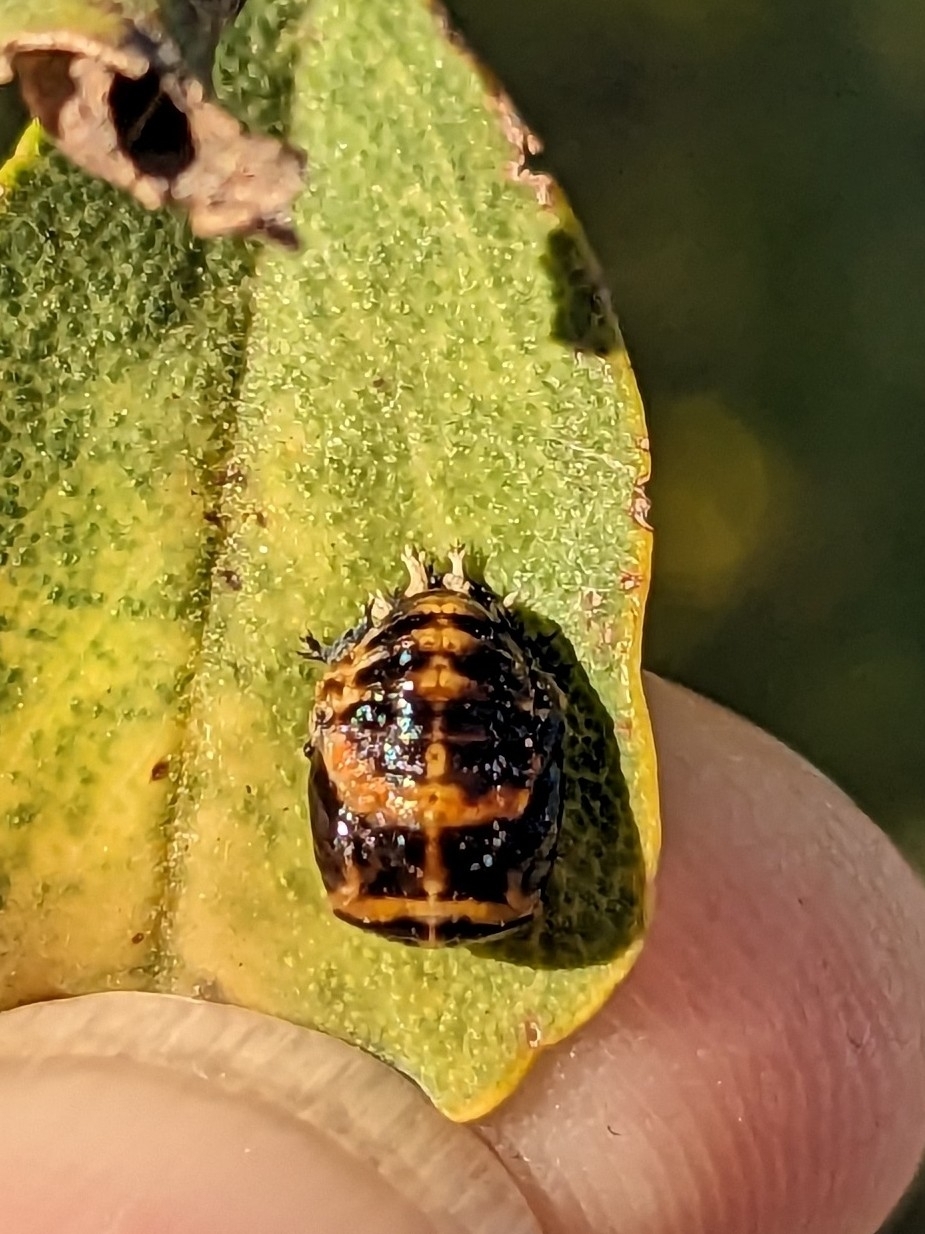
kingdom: Animalia
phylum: Arthropoda
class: Insecta
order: Coleoptera
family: Coccinellidae
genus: Harmonia
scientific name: Harmonia axyridis
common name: Harlequin ladybird
